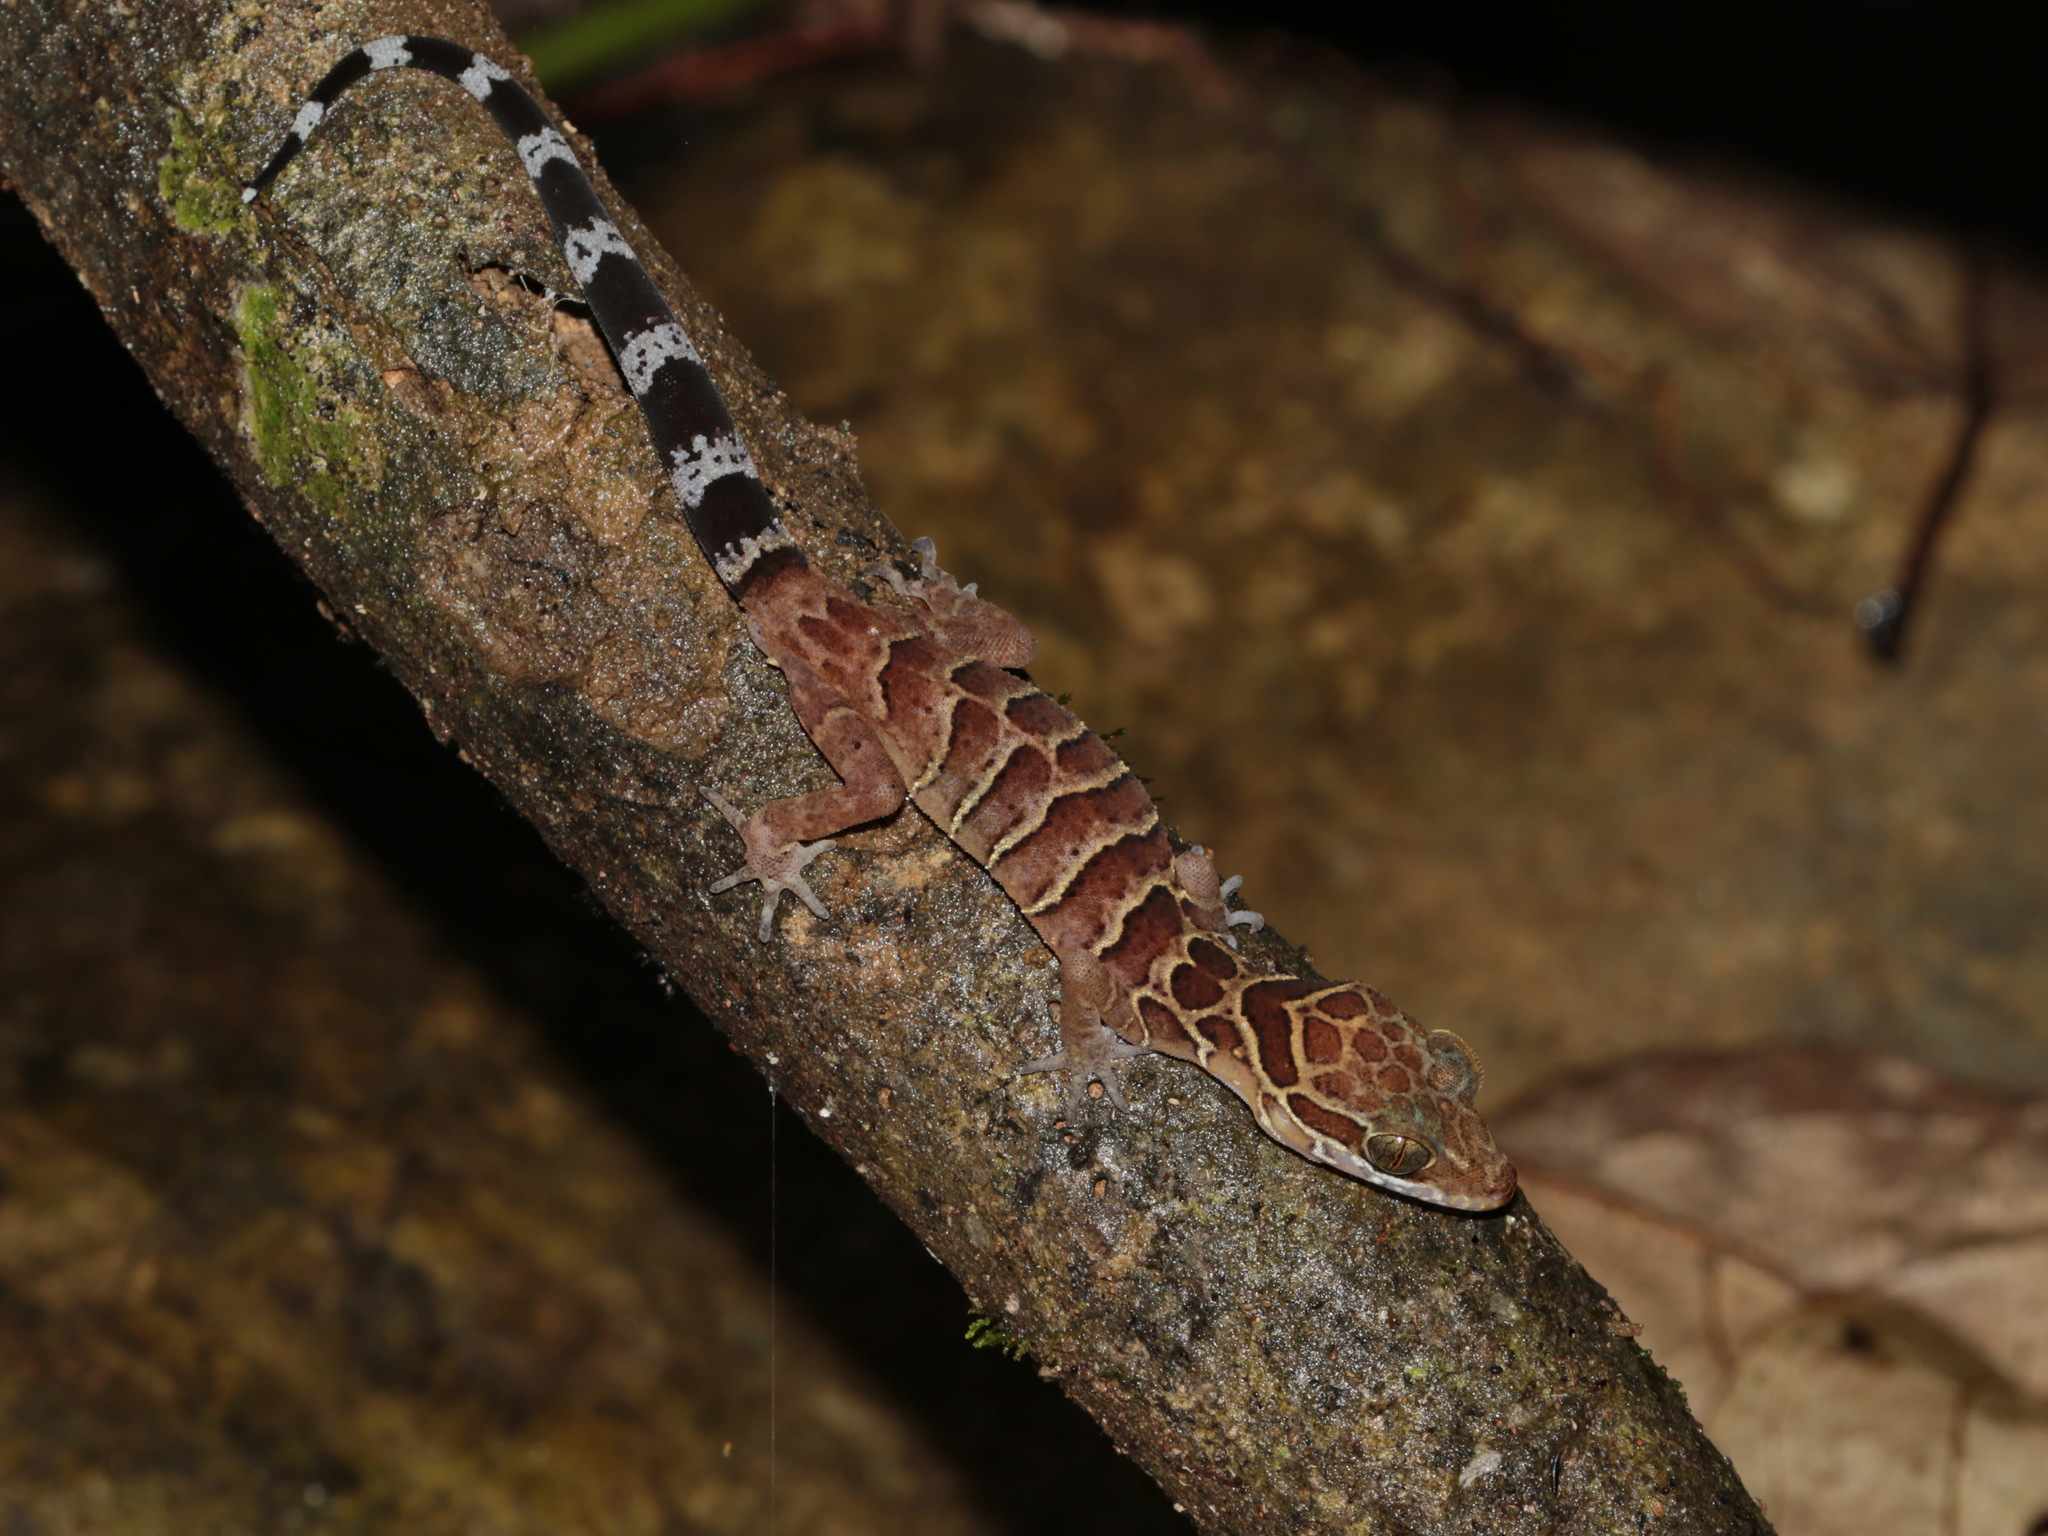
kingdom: Animalia
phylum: Chordata
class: Squamata
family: Gekkonidae
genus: Cyrtodactylus
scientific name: Cyrtodactylus zebraicus
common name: Pegu bent-toed gecko
